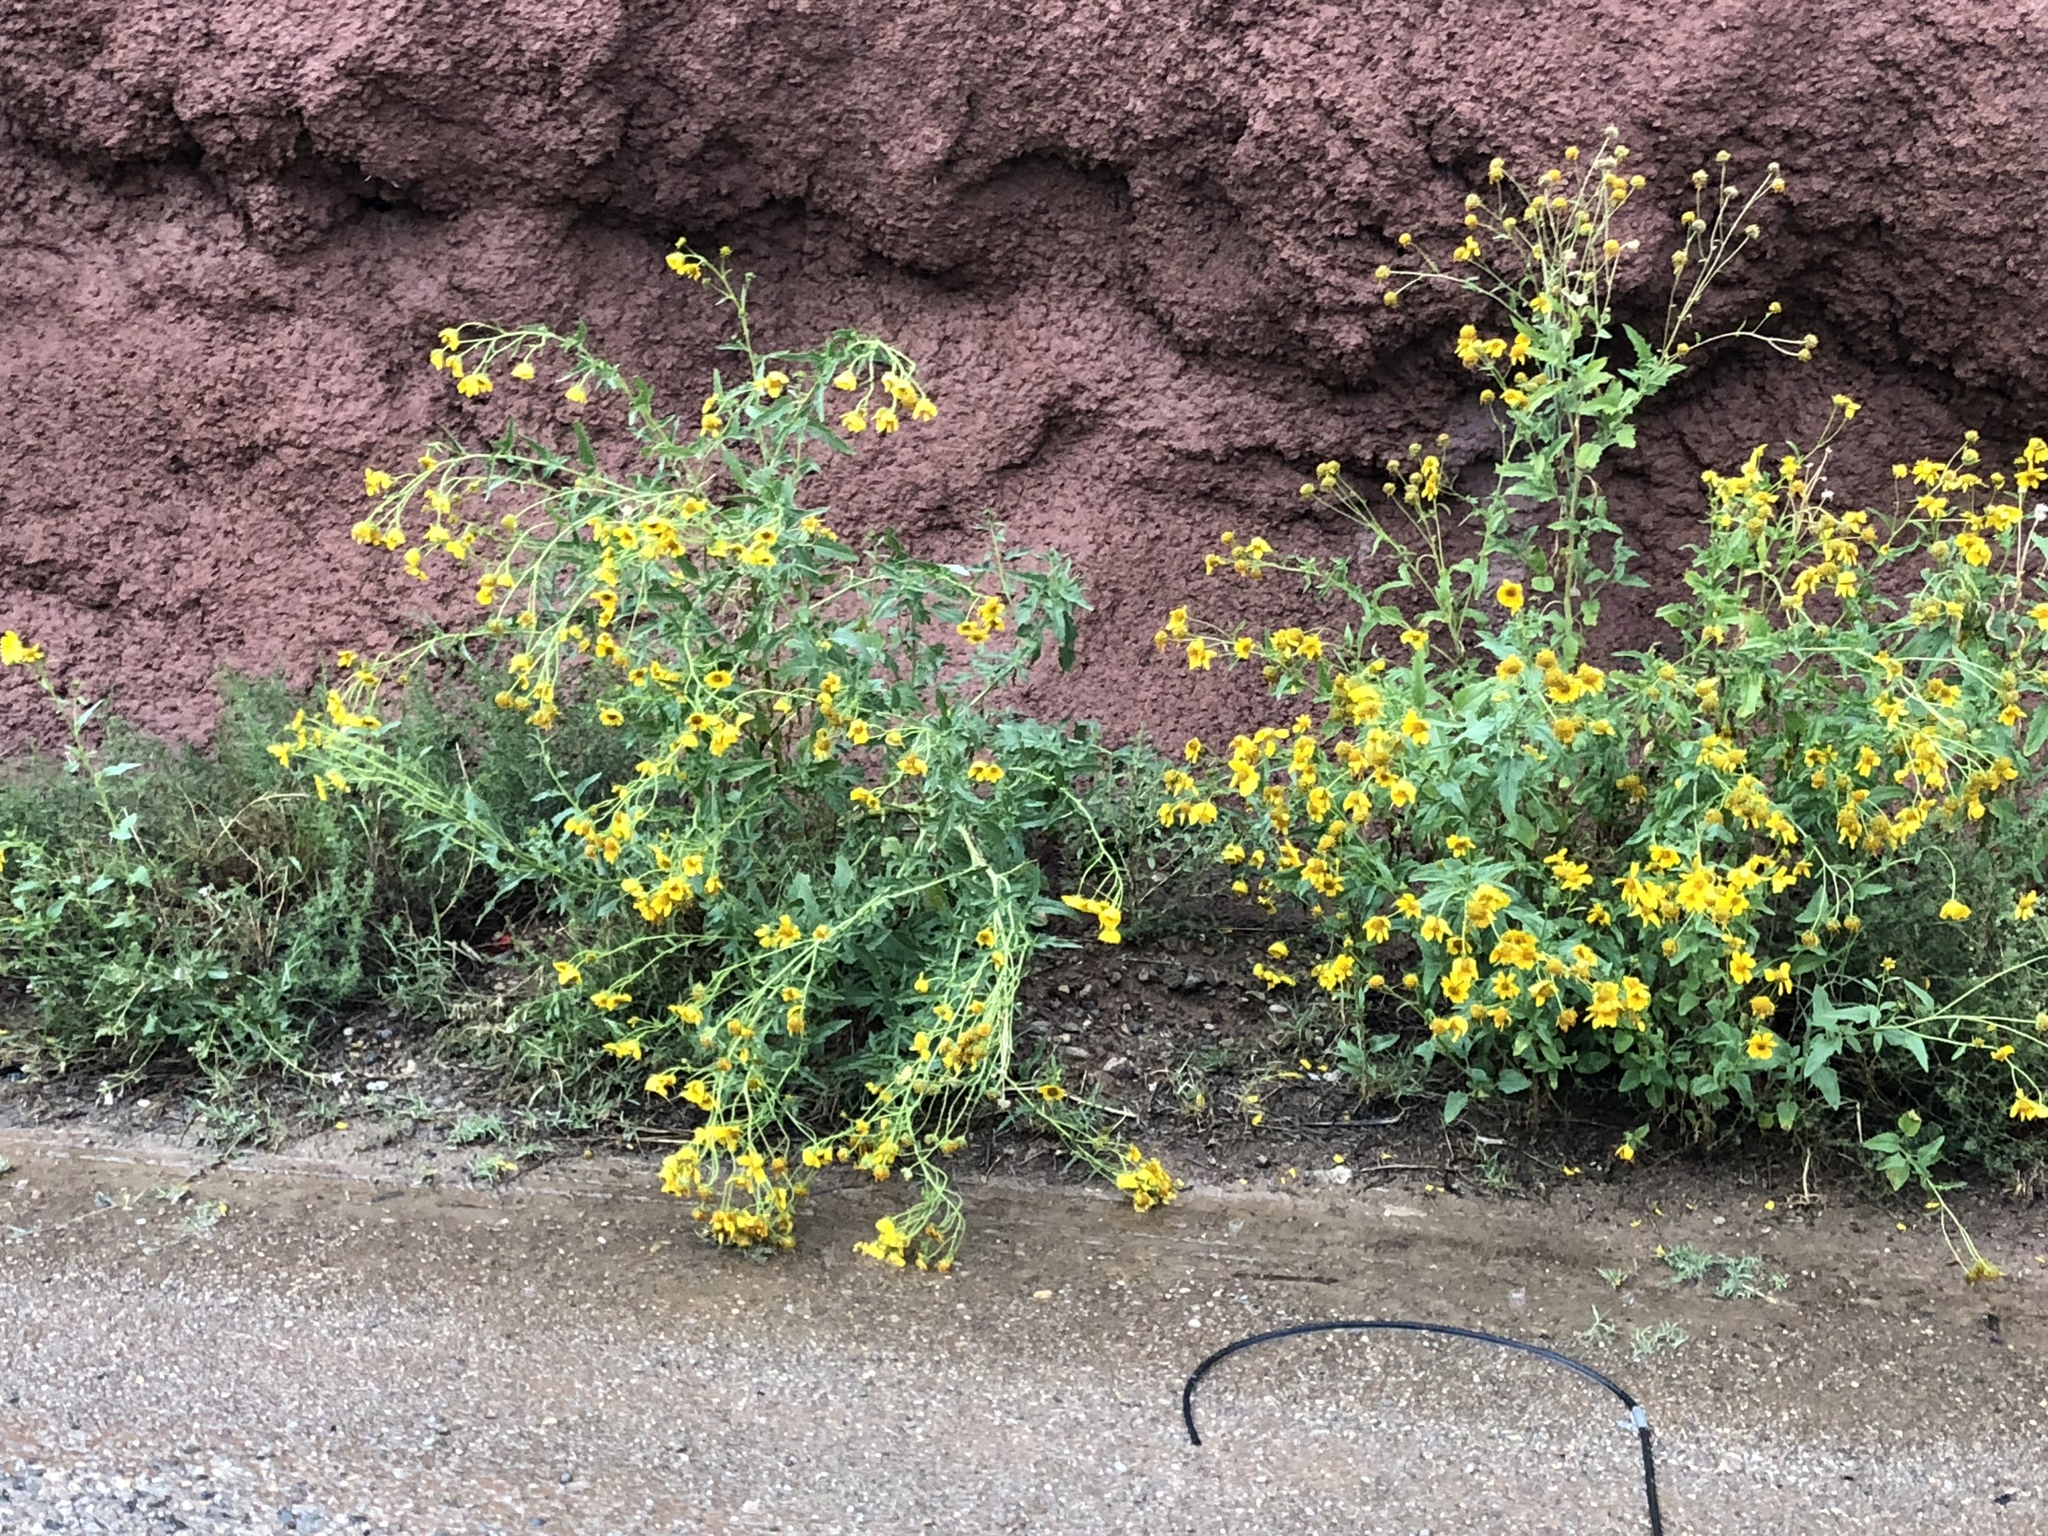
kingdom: Plantae
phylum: Tracheophyta
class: Magnoliopsida
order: Asterales
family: Asteraceae
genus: Verbesina
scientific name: Verbesina encelioides
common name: Golden crownbeard
